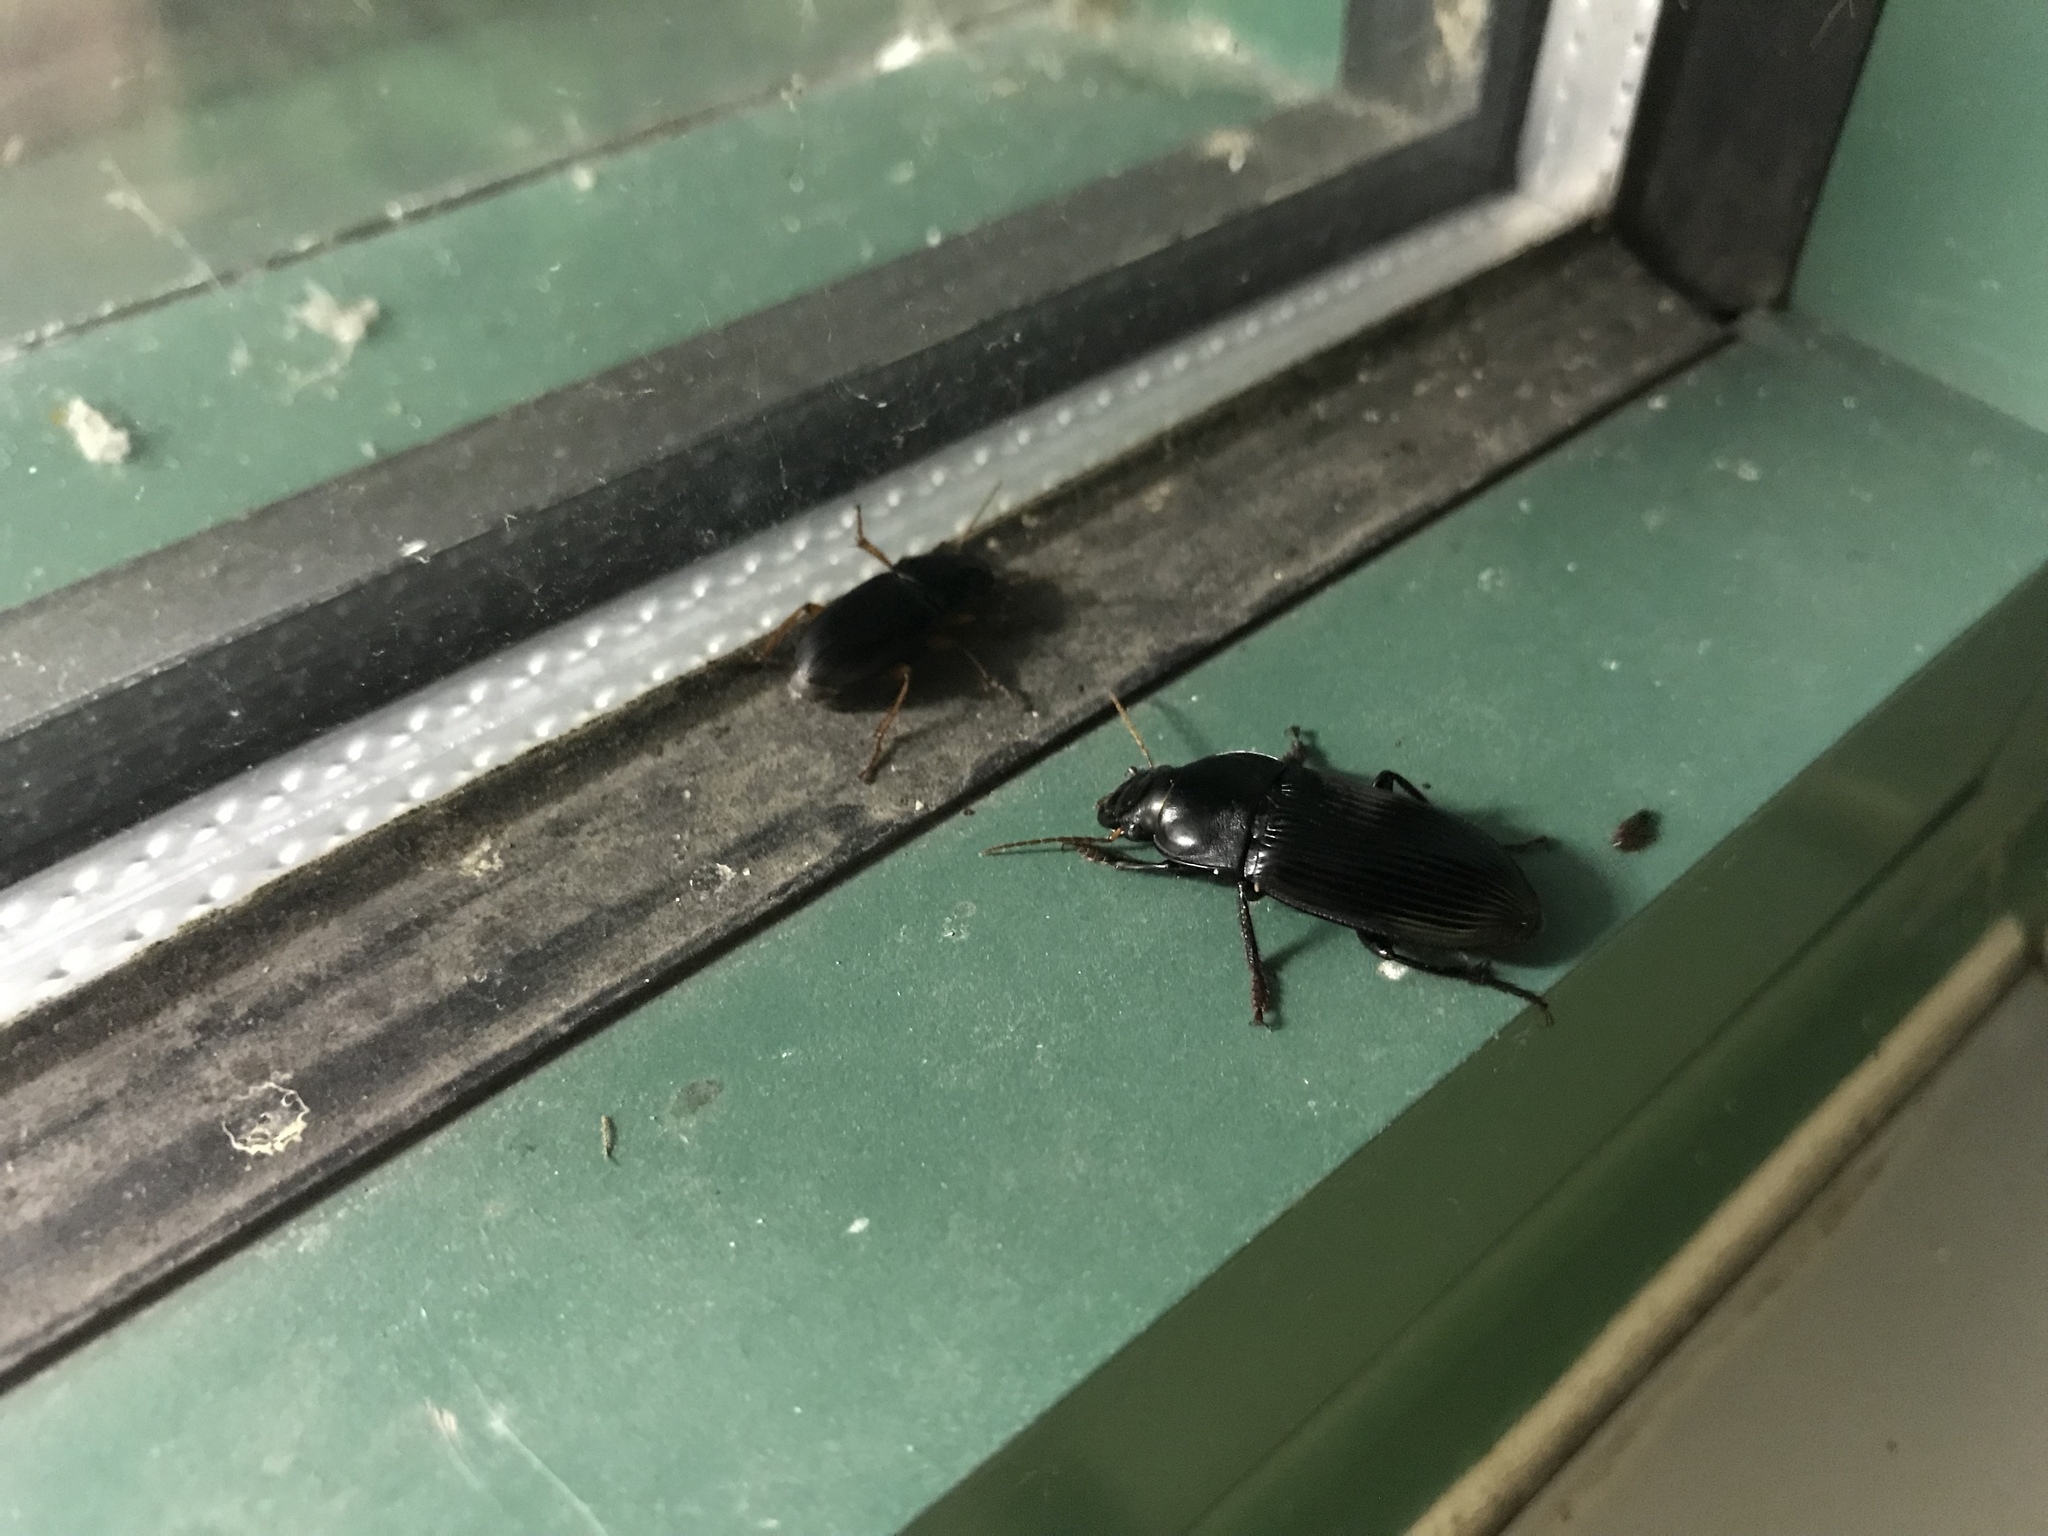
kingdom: Animalia
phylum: Arthropoda
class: Insecta
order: Coleoptera
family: Carabidae
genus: Harpalus
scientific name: Harpalus caliginosus
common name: Murky ground beetle
